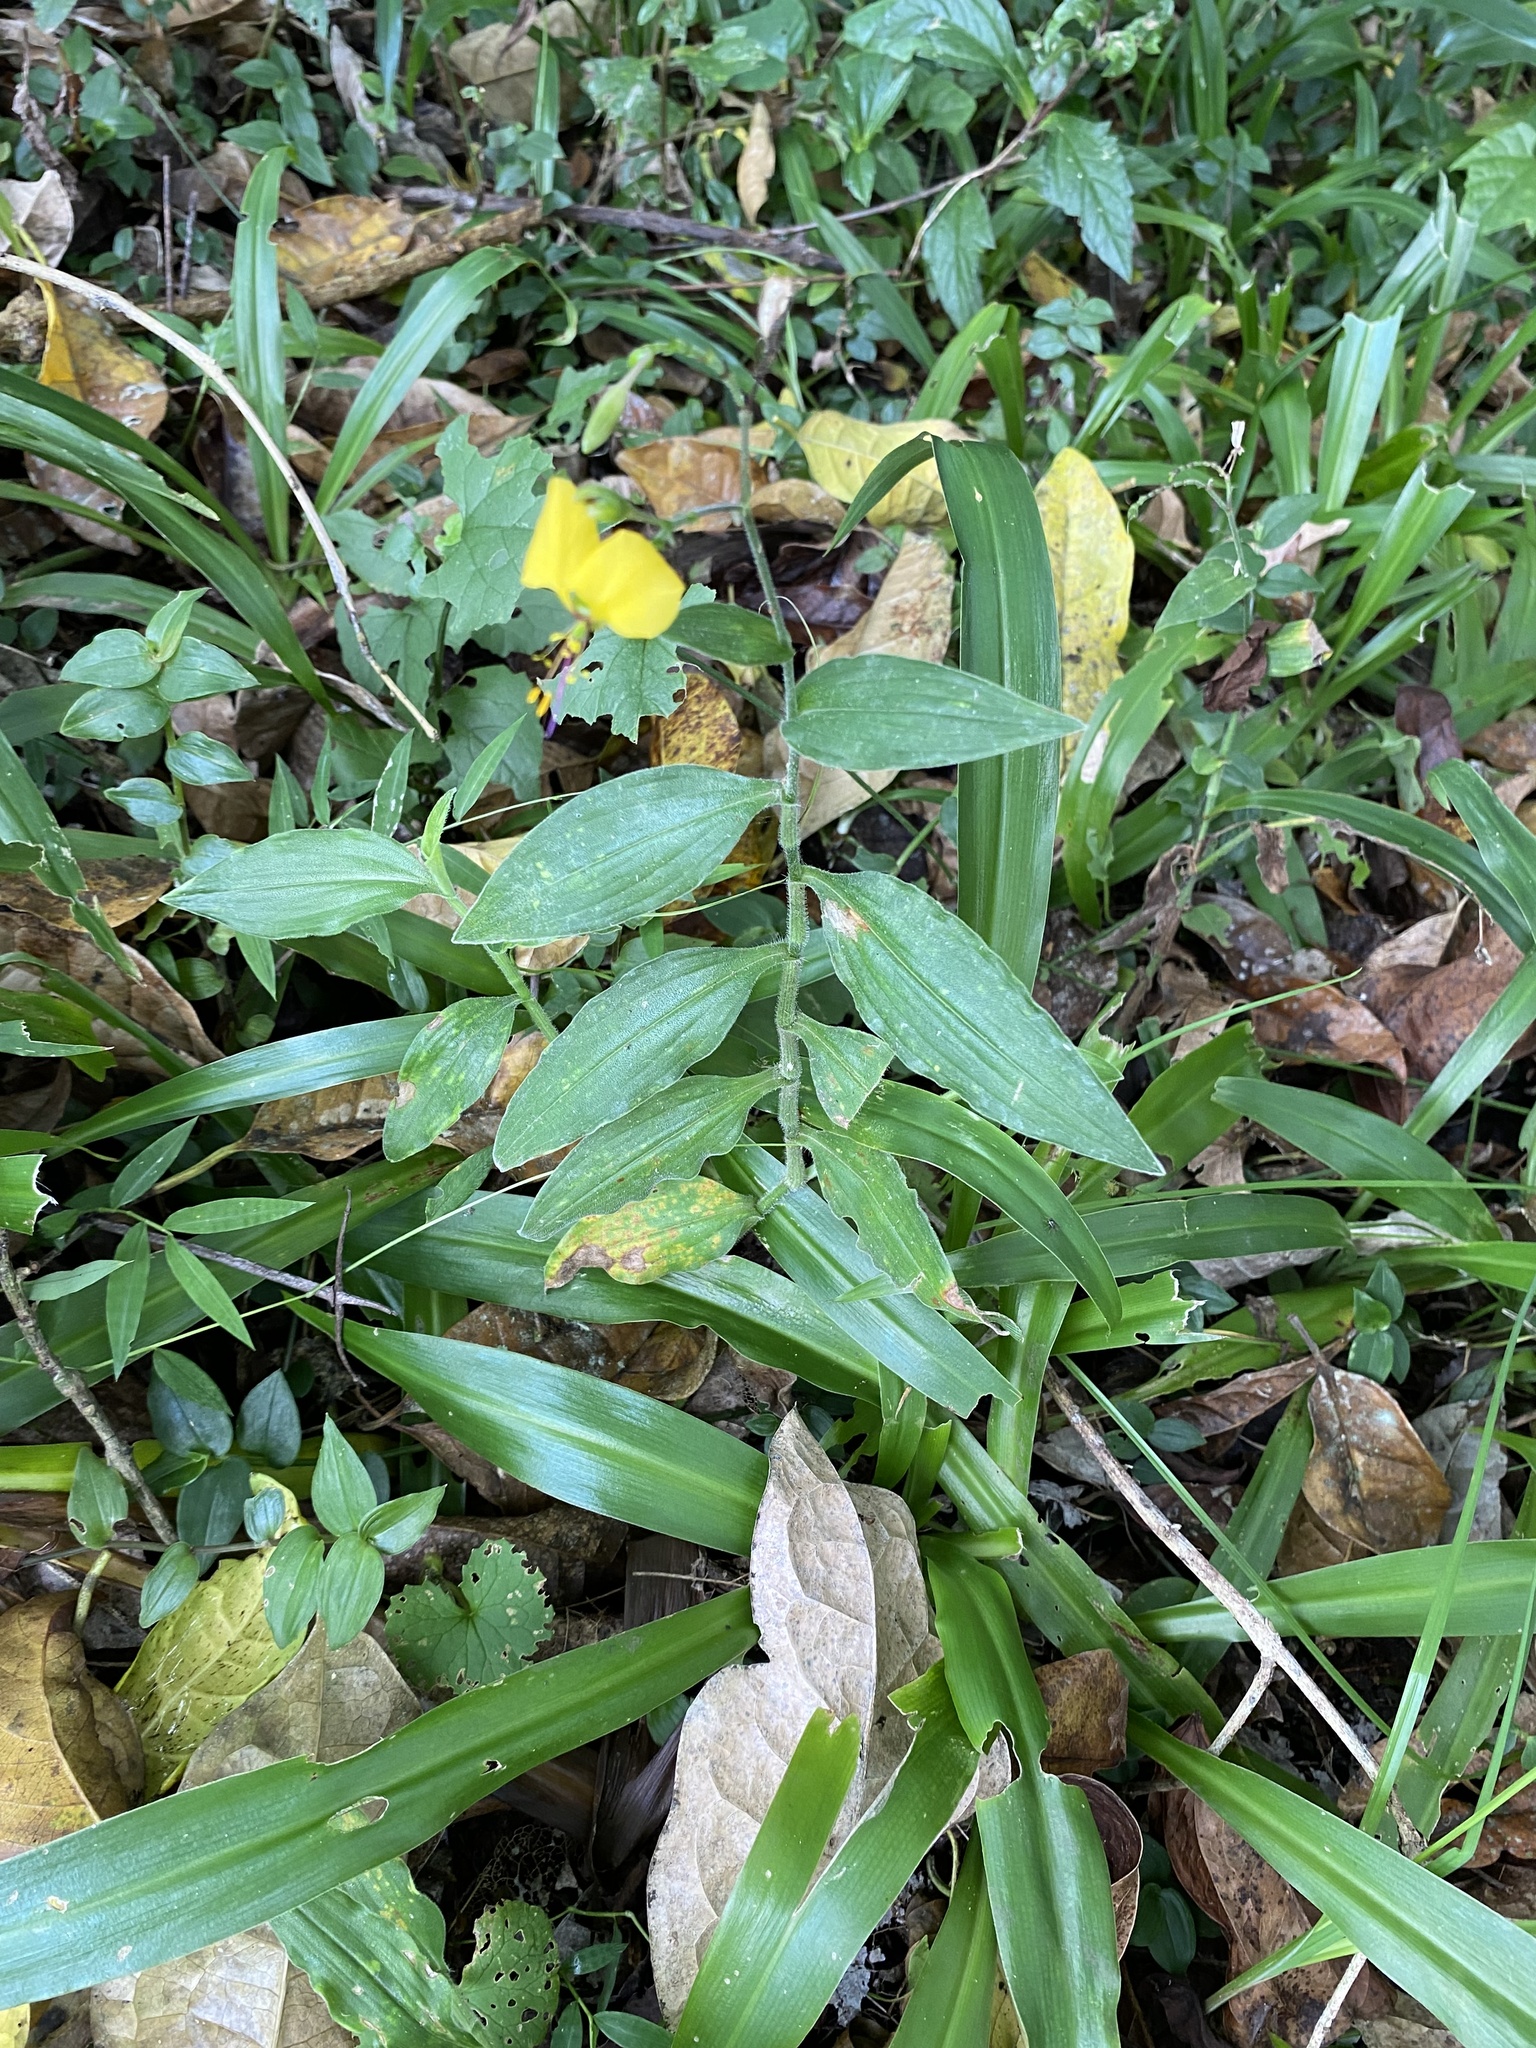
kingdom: Plantae
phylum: Tracheophyta
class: Liliopsida
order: Commelinales
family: Commelinaceae
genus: Aneilema
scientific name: Aneilema aequinoctiale
